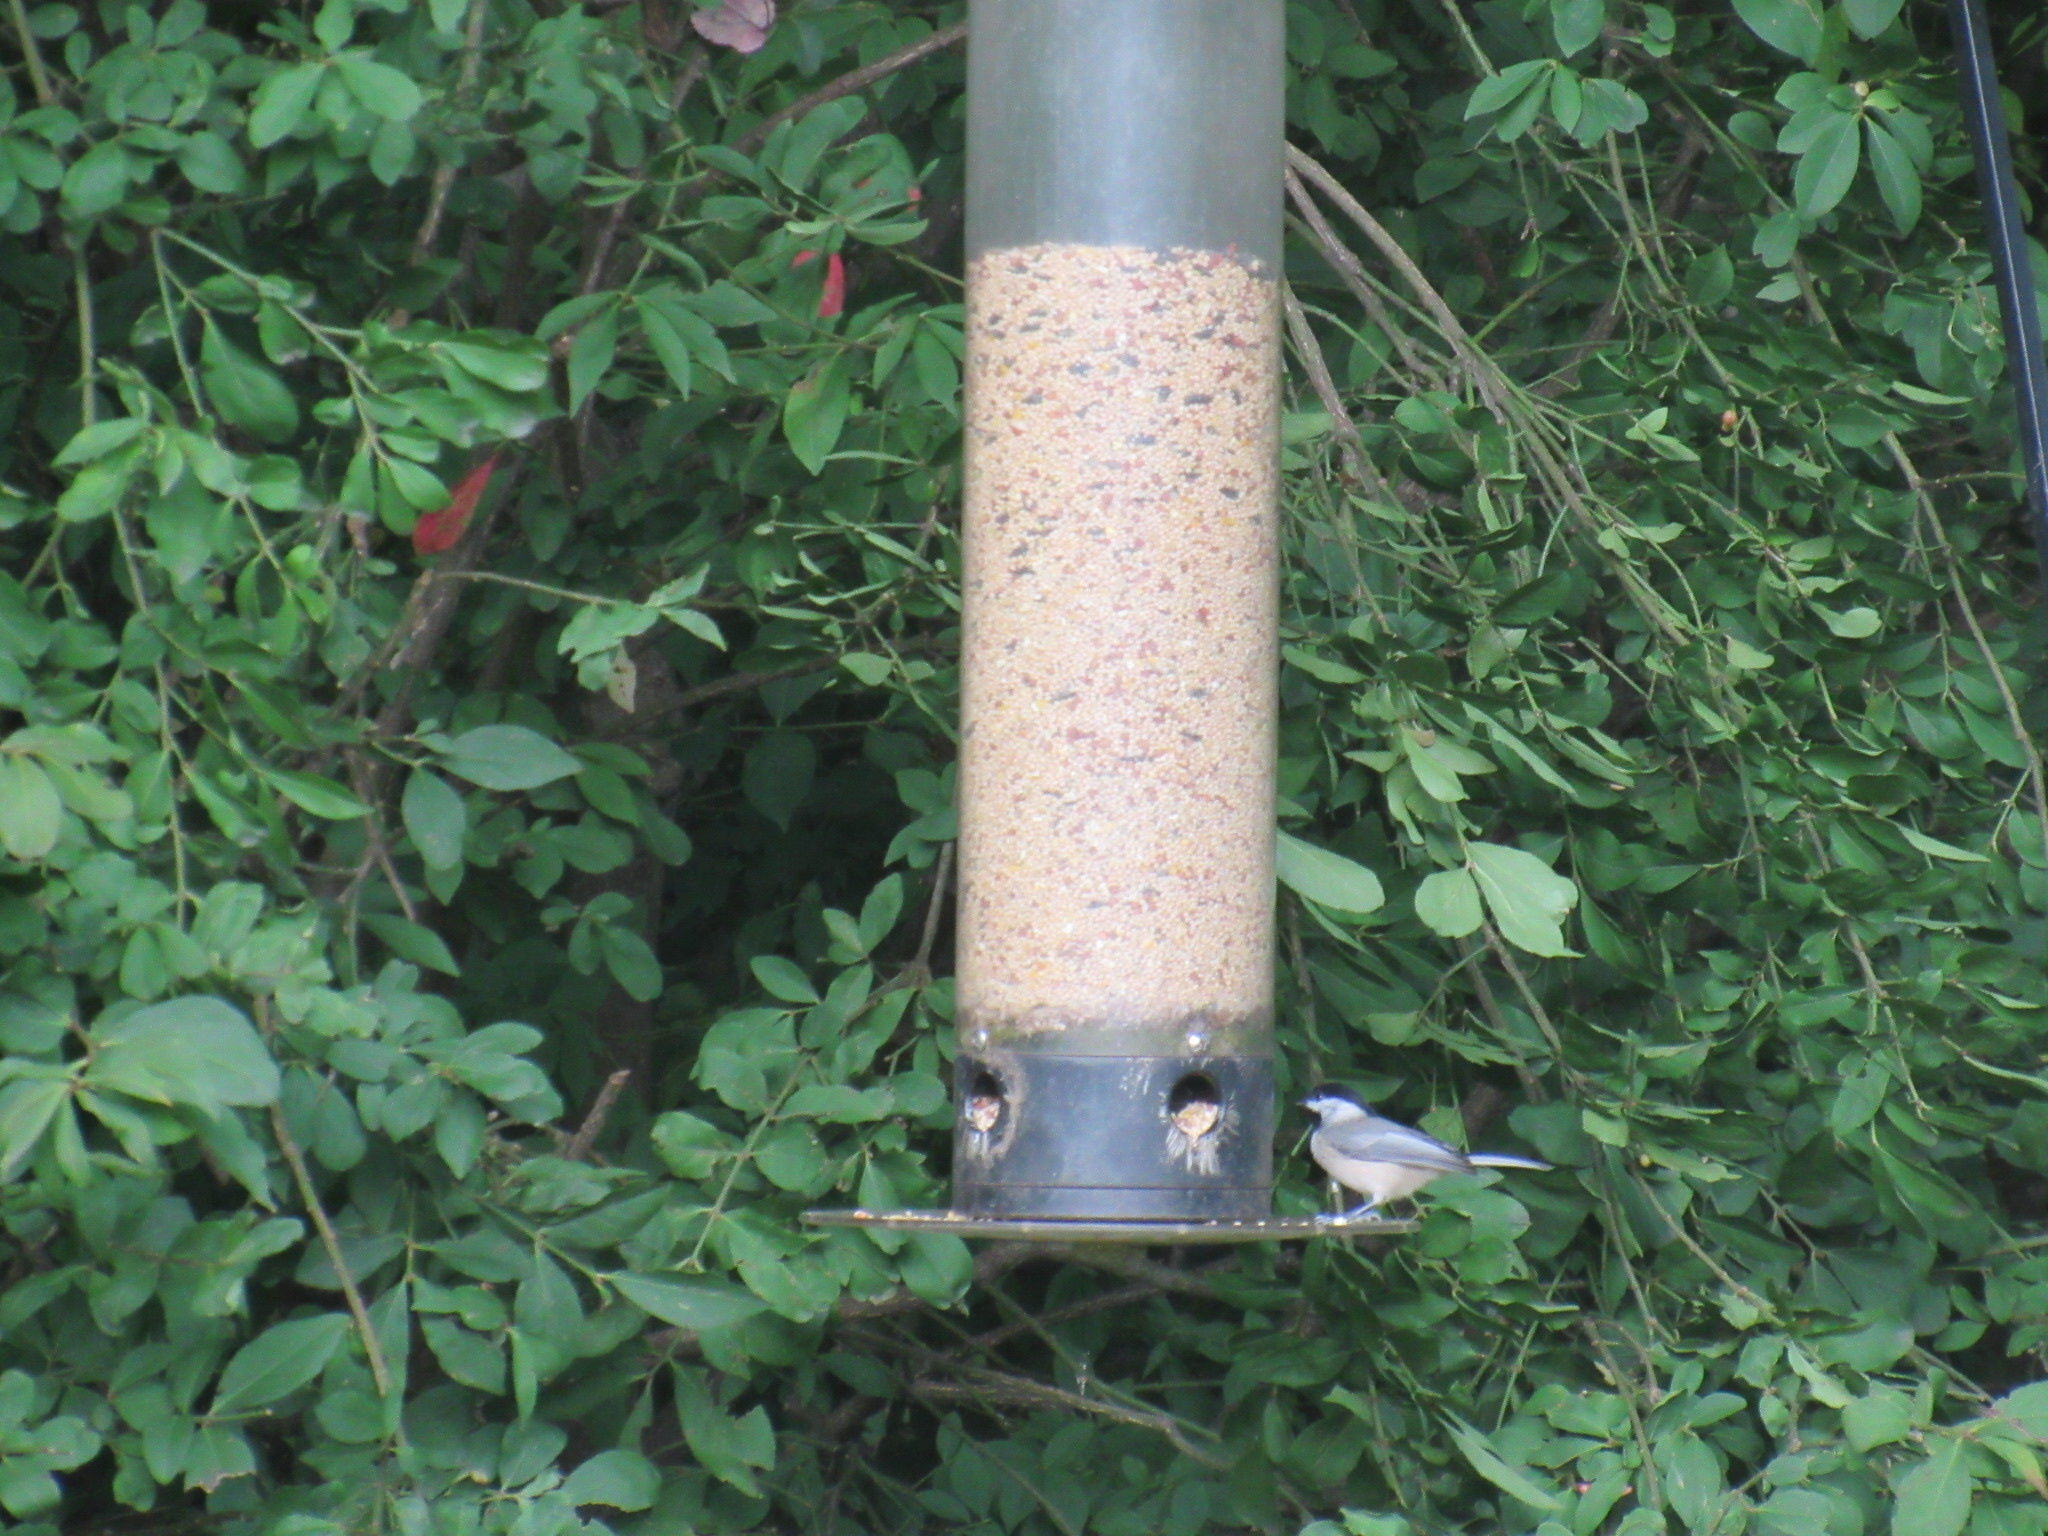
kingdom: Animalia
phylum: Chordata
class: Aves
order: Passeriformes
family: Paridae
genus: Poecile
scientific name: Poecile carolinensis
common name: Carolina chickadee
